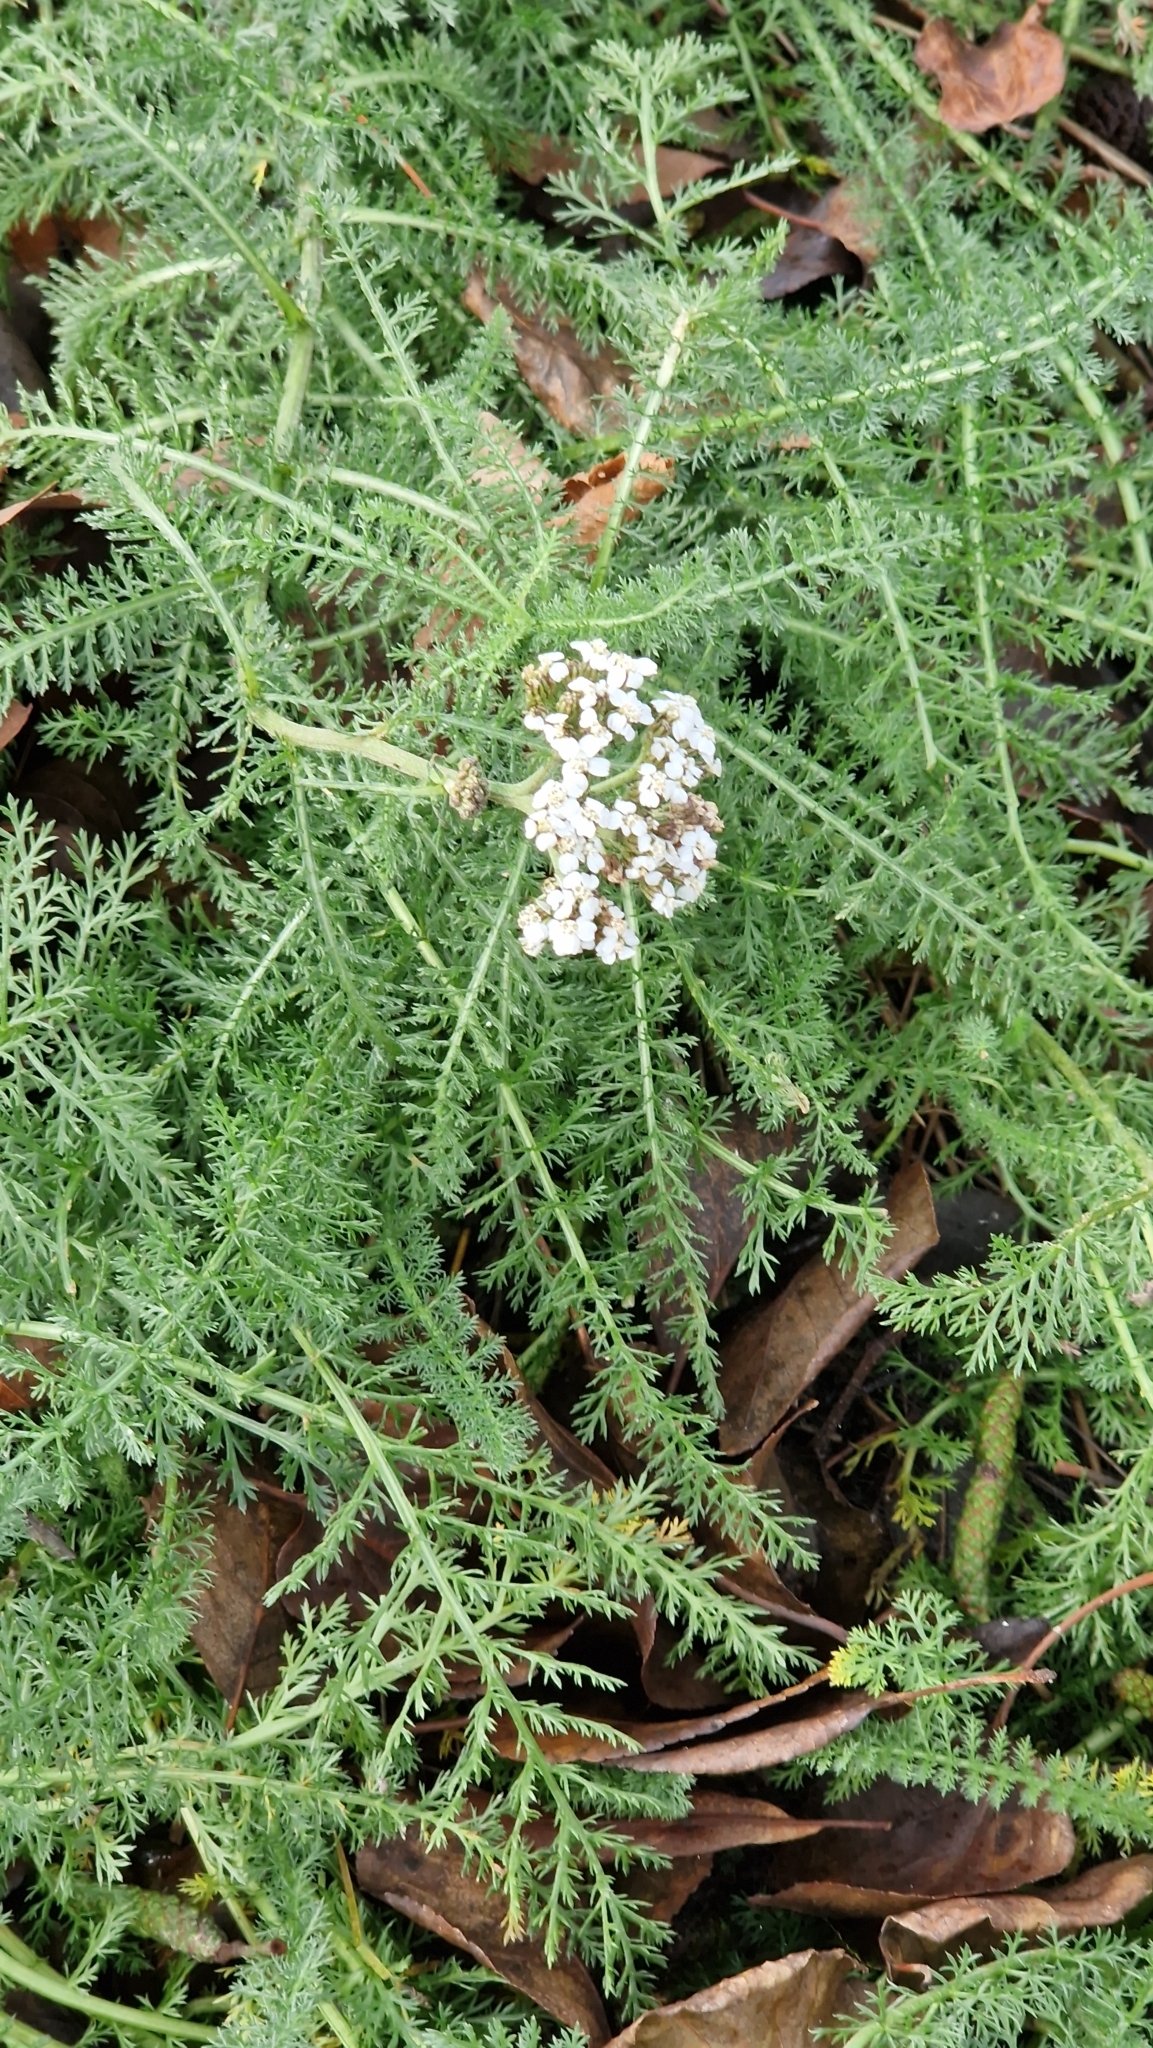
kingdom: Plantae
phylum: Tracheophyta
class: Magnoliopsida
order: Asterales
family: Asteraceae
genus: Achillea
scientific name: Achillea millefolium
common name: Yarrow
